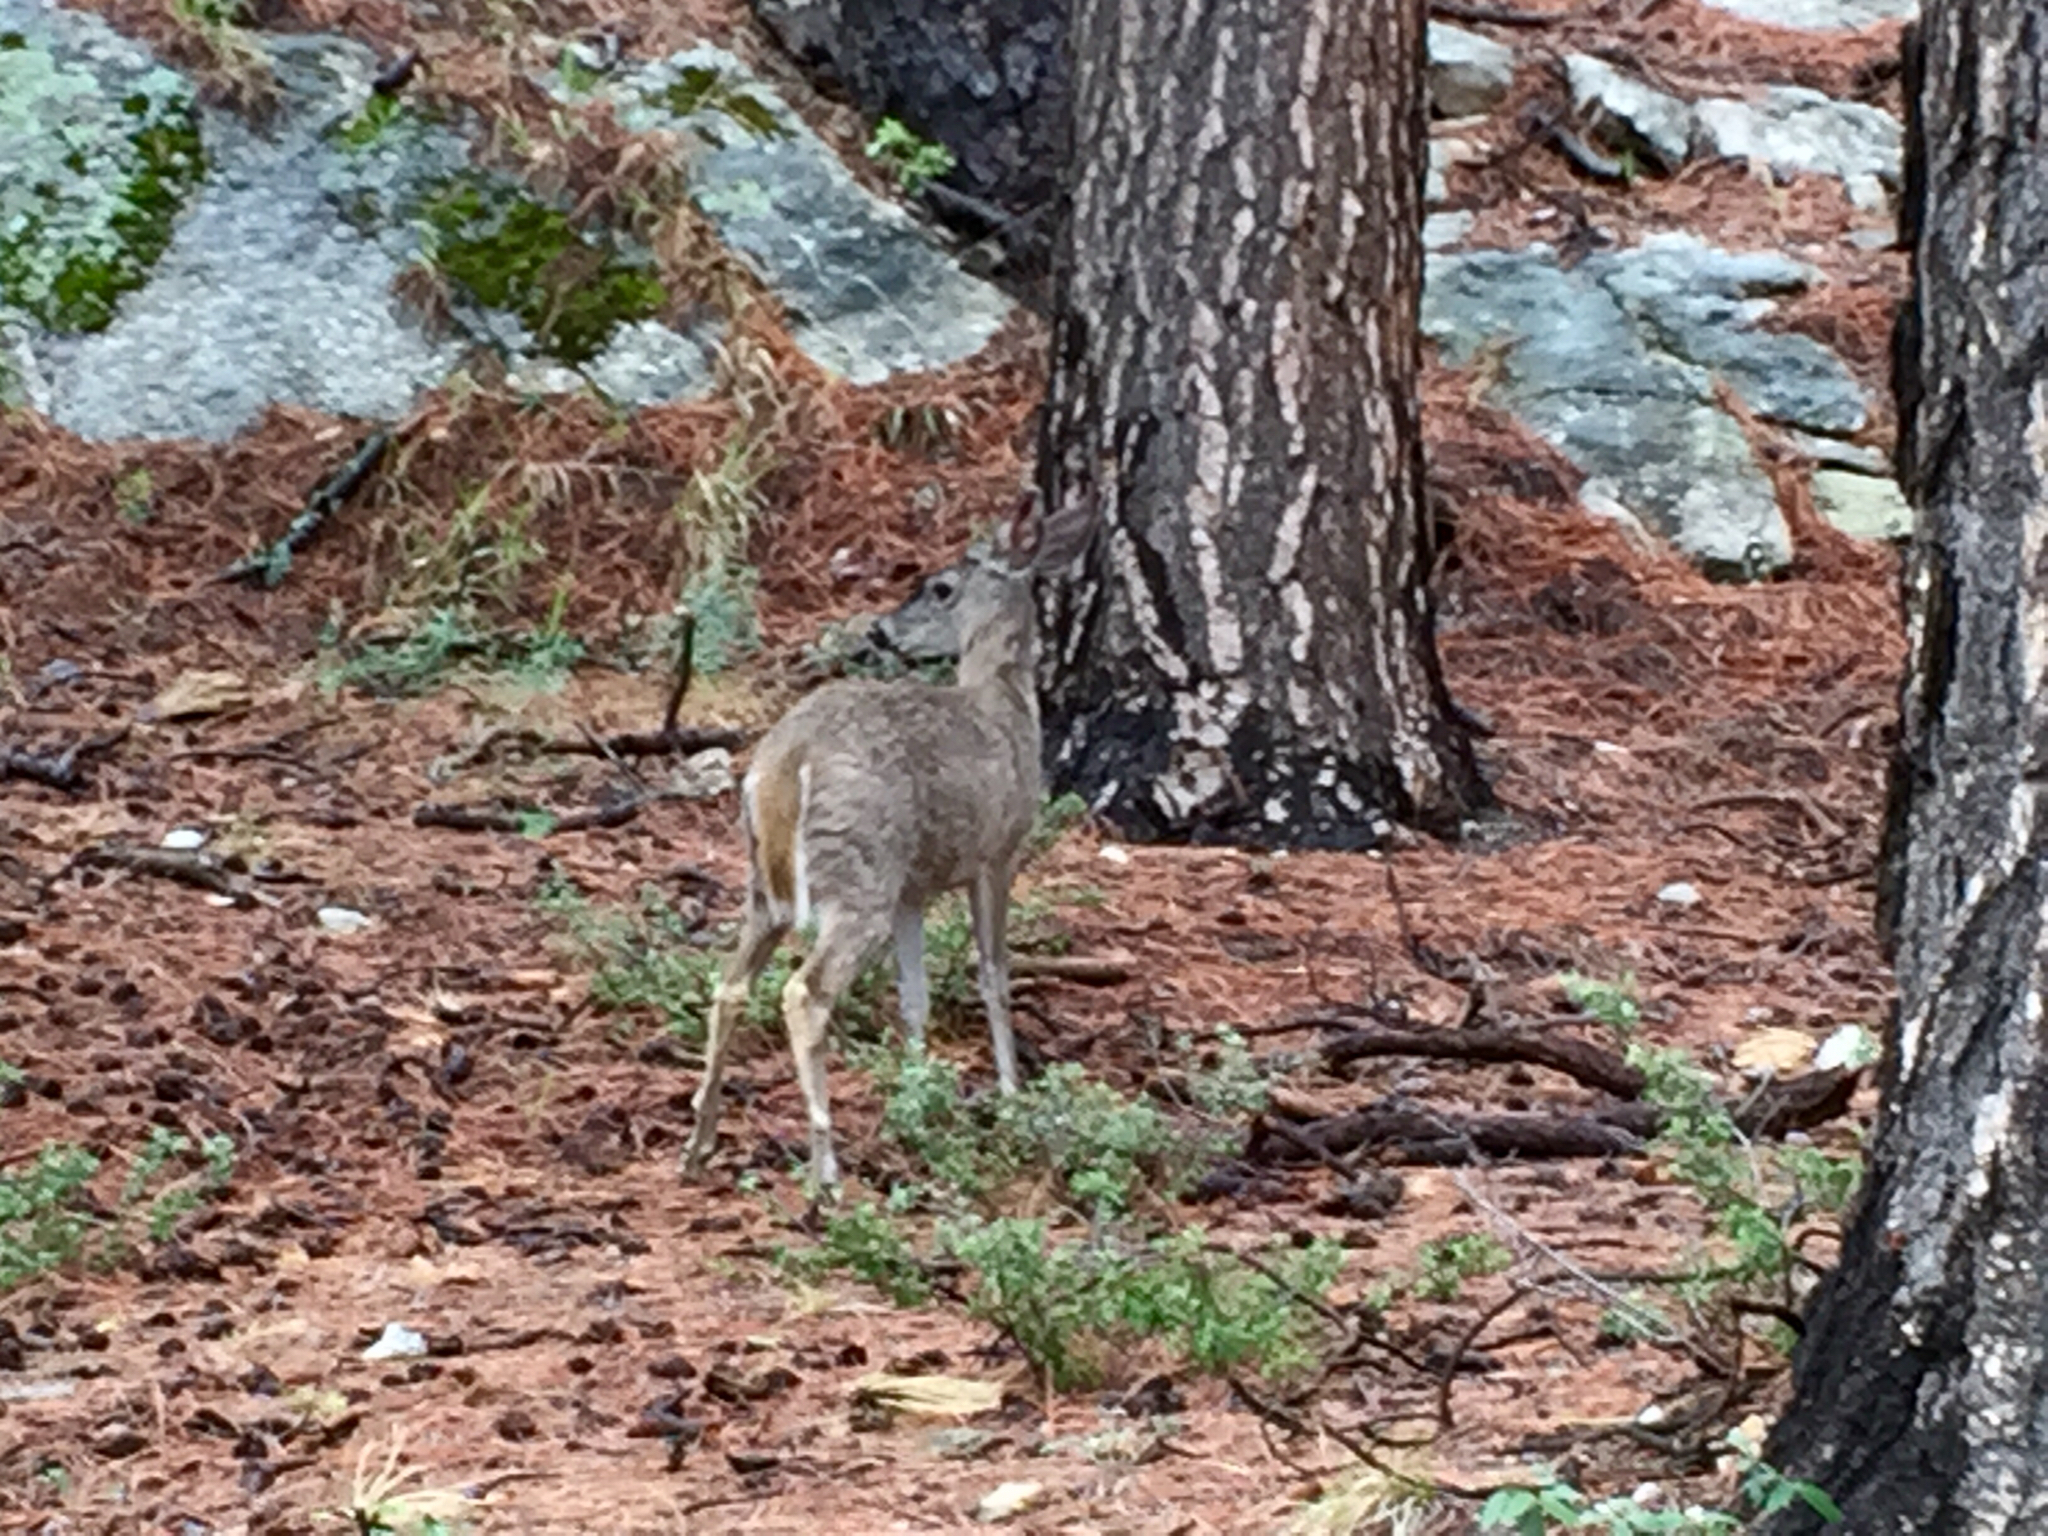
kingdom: Animalia
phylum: Chordata
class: Mammalia
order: Artiodactyla
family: Cervidae
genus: Odocoileus
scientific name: Odocoileus virginianus
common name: White-tailed deer
